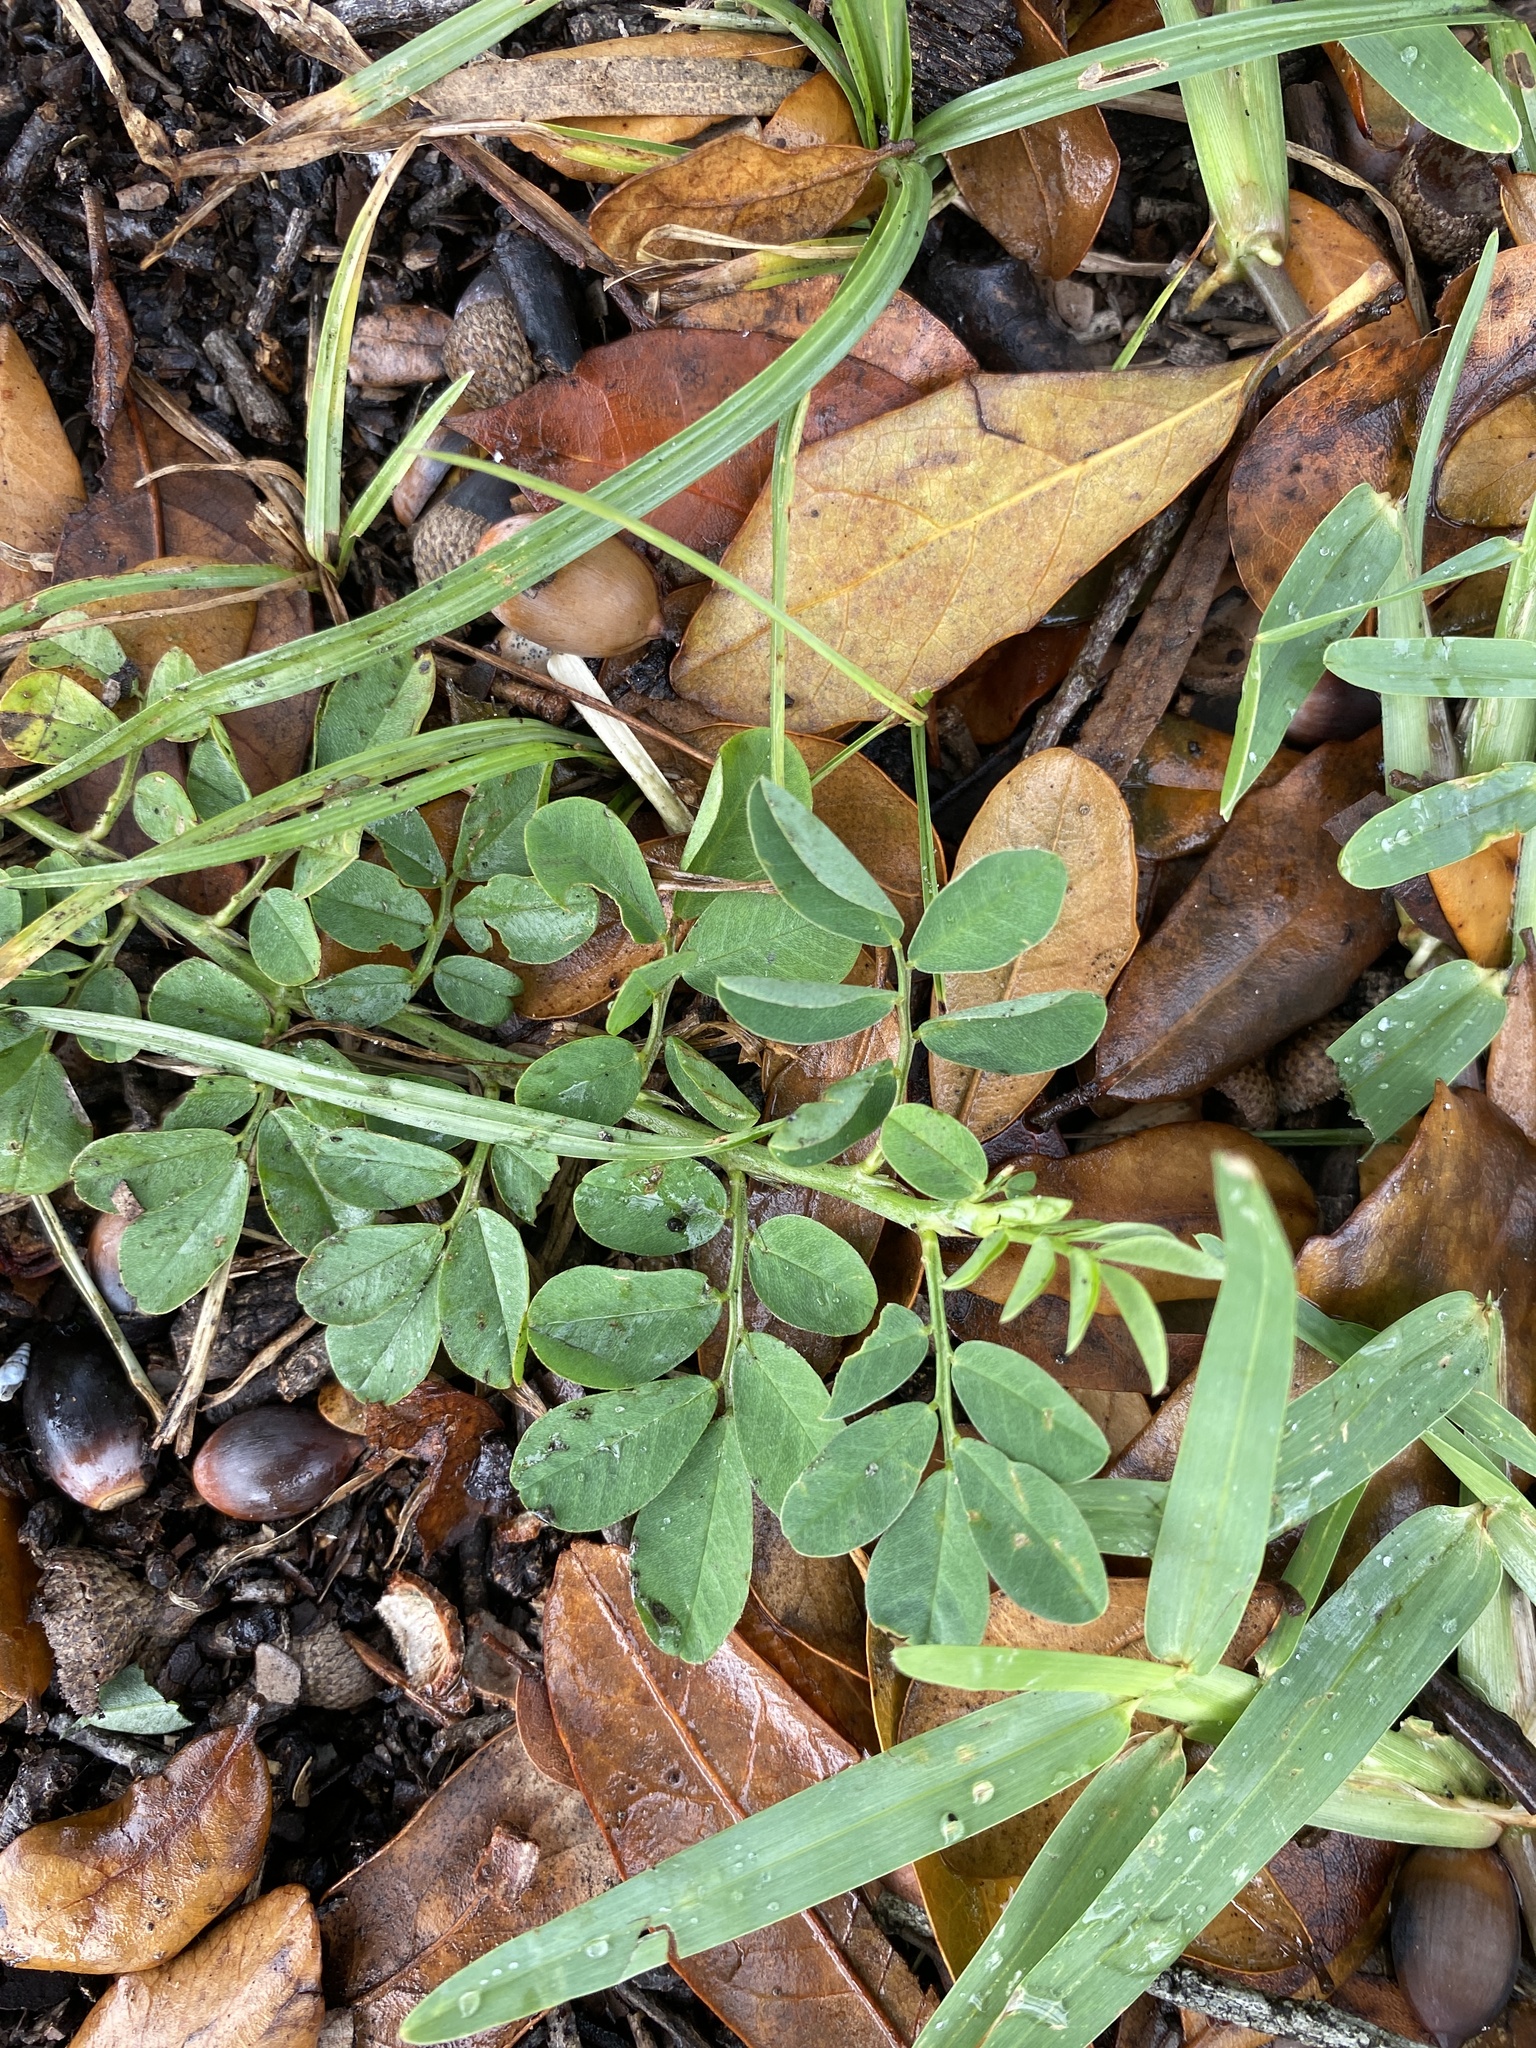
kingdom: Plantae
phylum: Tracheophyta
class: Magnoliopsida
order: Fabales
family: Fabaceae
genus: Indigofera
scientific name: Indigofera spicata
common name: Creeping indigo
